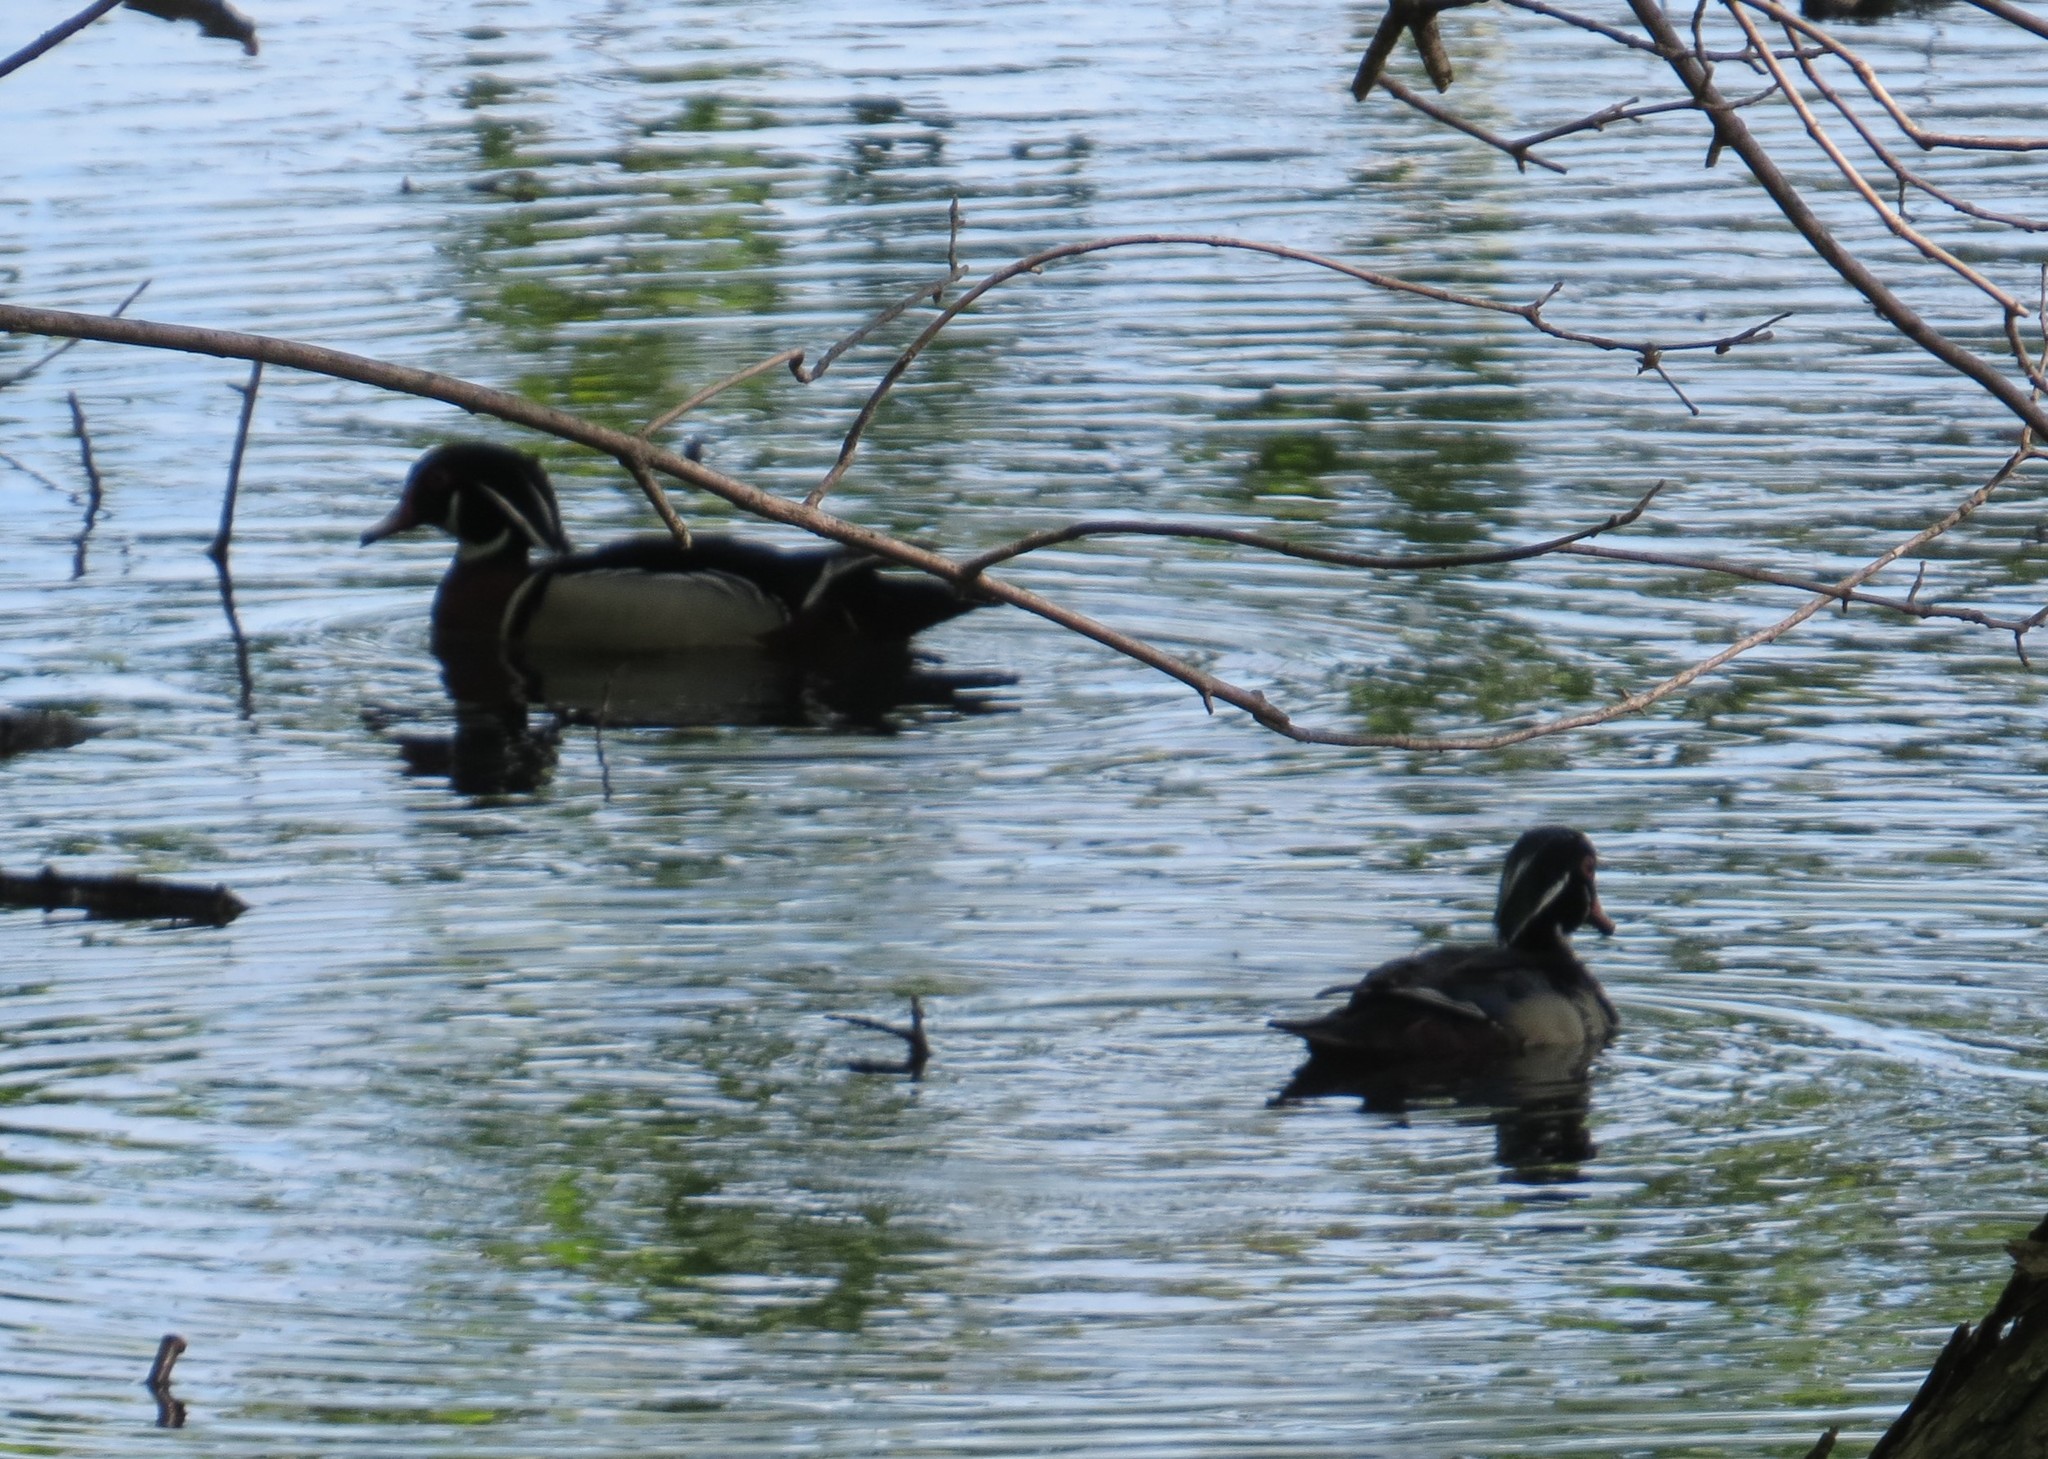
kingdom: Animalia
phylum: Chordata
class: Aves
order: Anseriformes
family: Anatidae
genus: Aix
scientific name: Aix sponsa
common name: Wood duck
